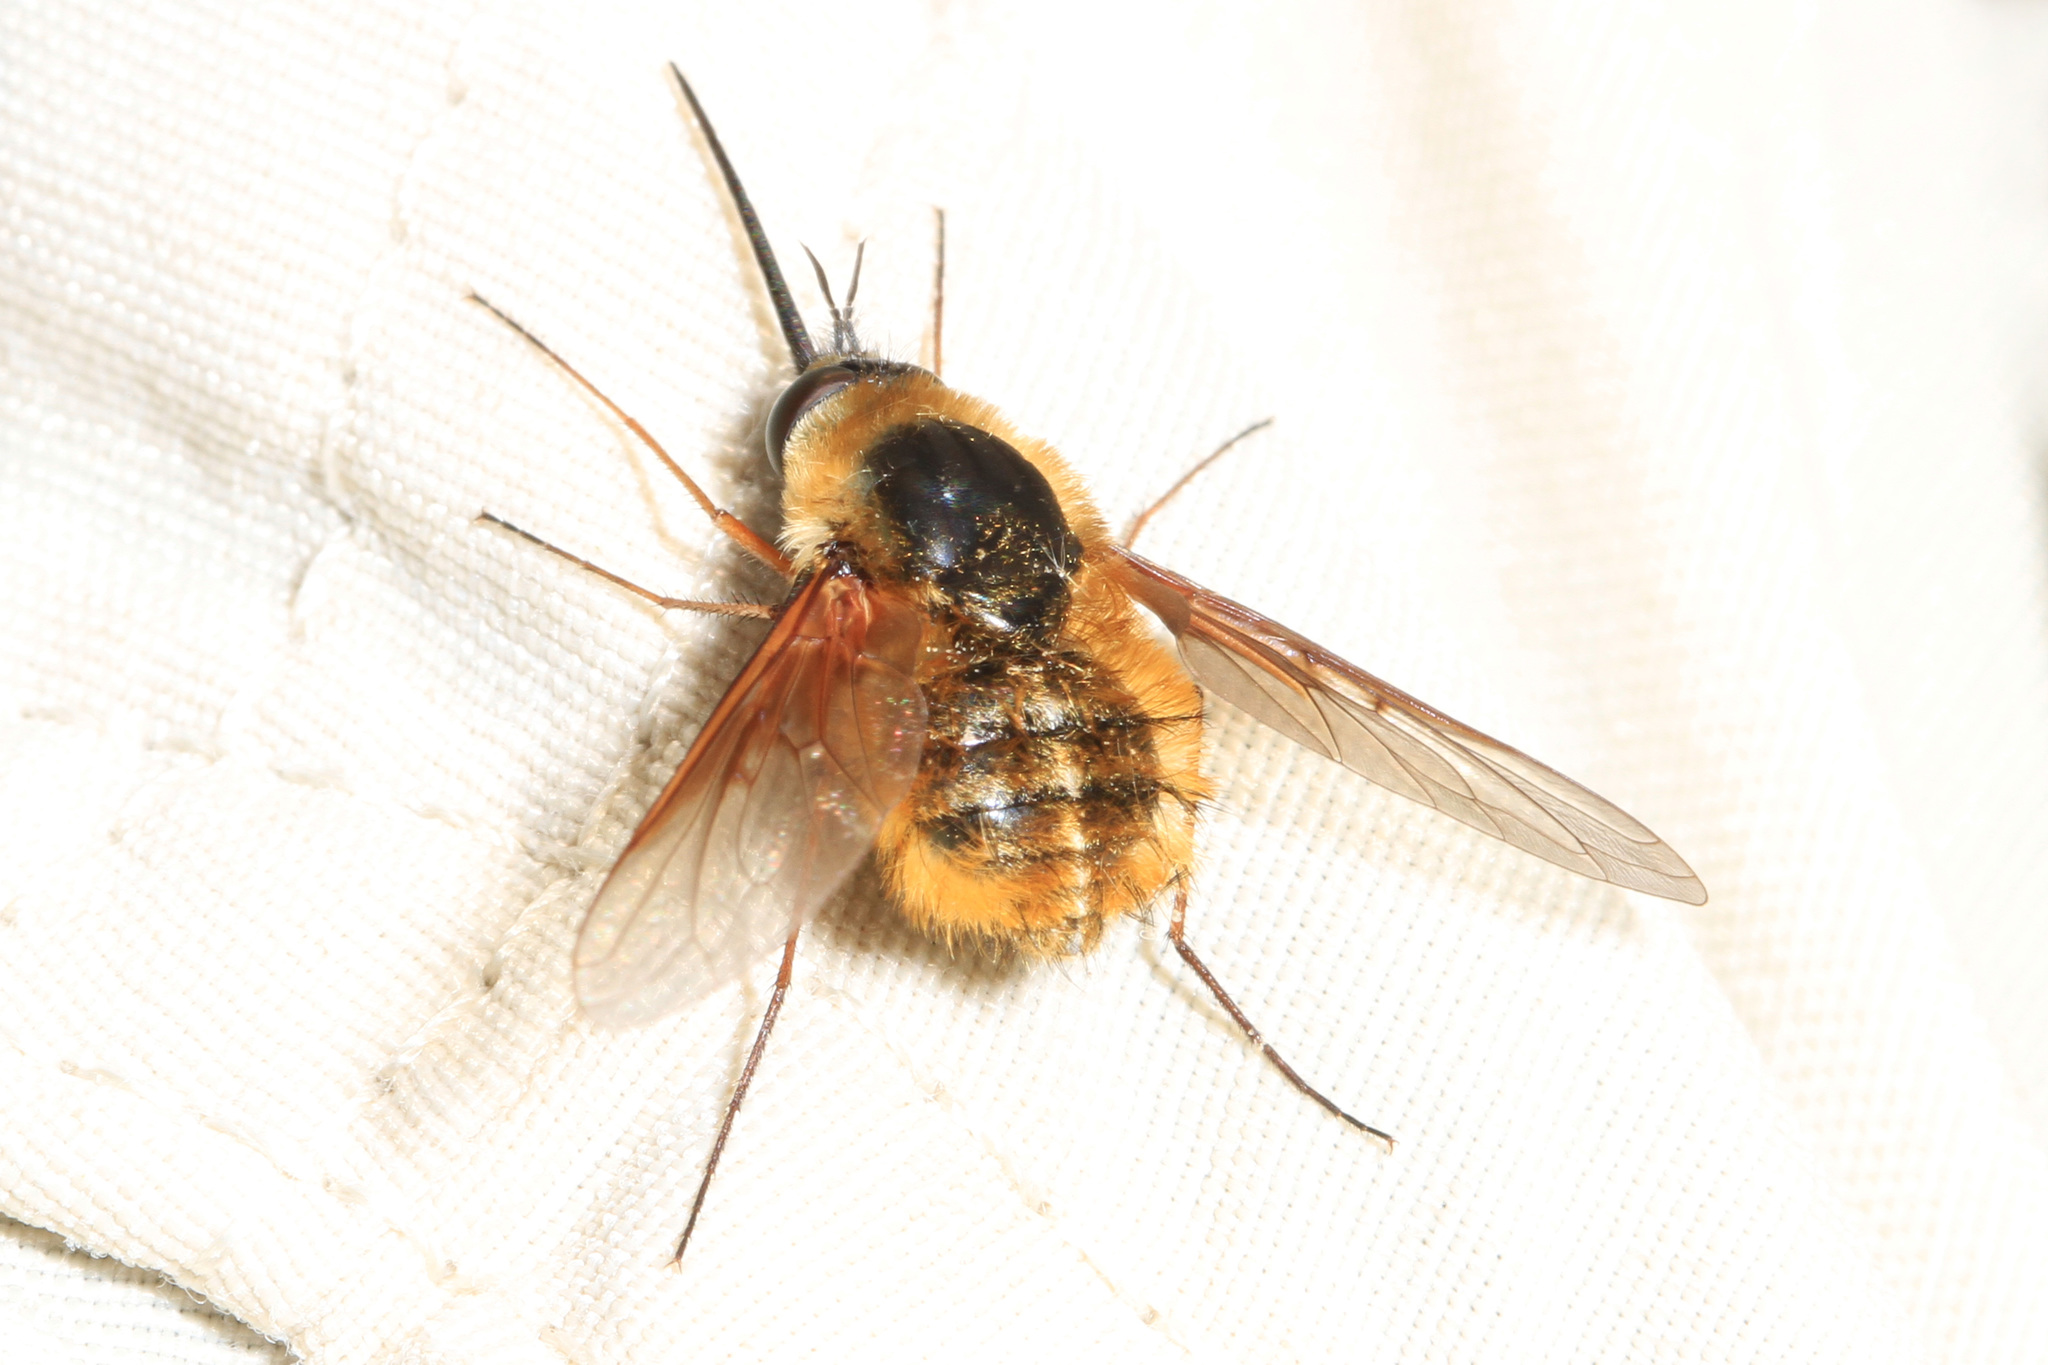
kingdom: Animalia
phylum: Arthropoda
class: Insecta
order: Diptera
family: Bombyliidae
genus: Bombylius
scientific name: Bombylius mexicanus
